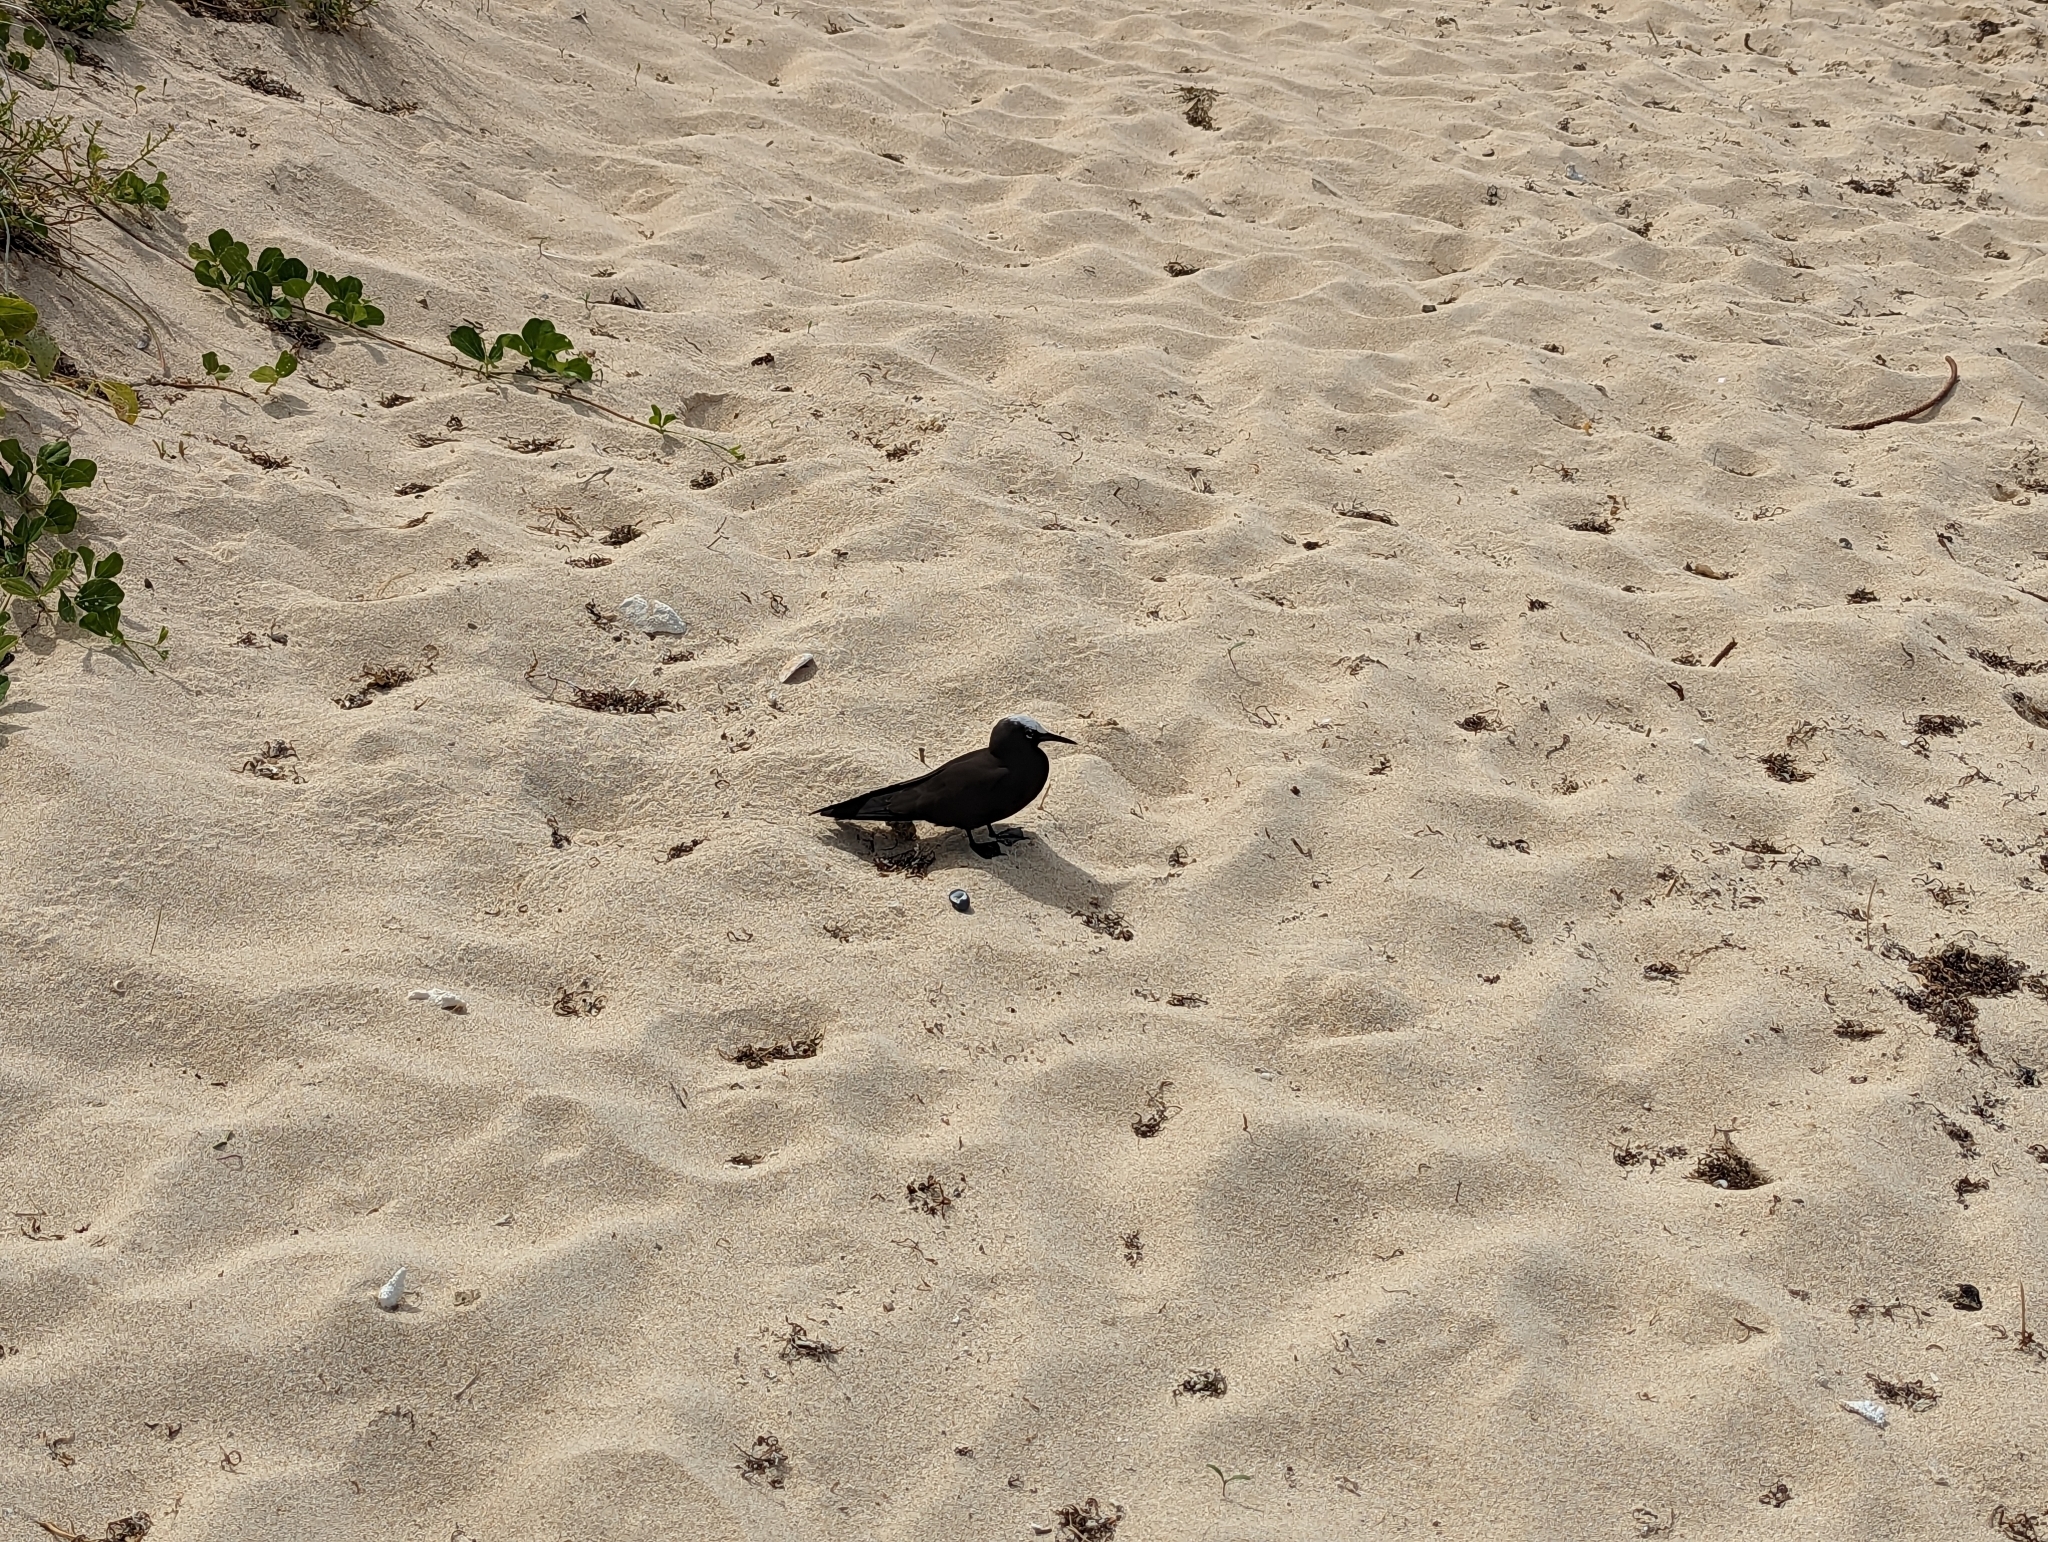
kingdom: Animalia
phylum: Chordata
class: Aves
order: Charadriiformes
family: Laridae
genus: Anous
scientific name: Anous minutus
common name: Black noddy
